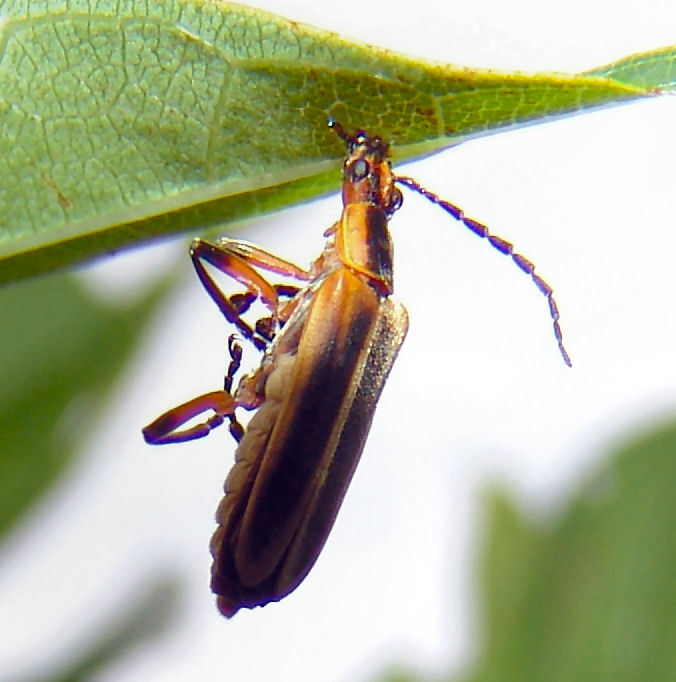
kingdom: Animalia
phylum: Arthropoda
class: Insecta
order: Coleoptera
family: Cantharidae
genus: Chauliognathus
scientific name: Chauliognathus marginatus
